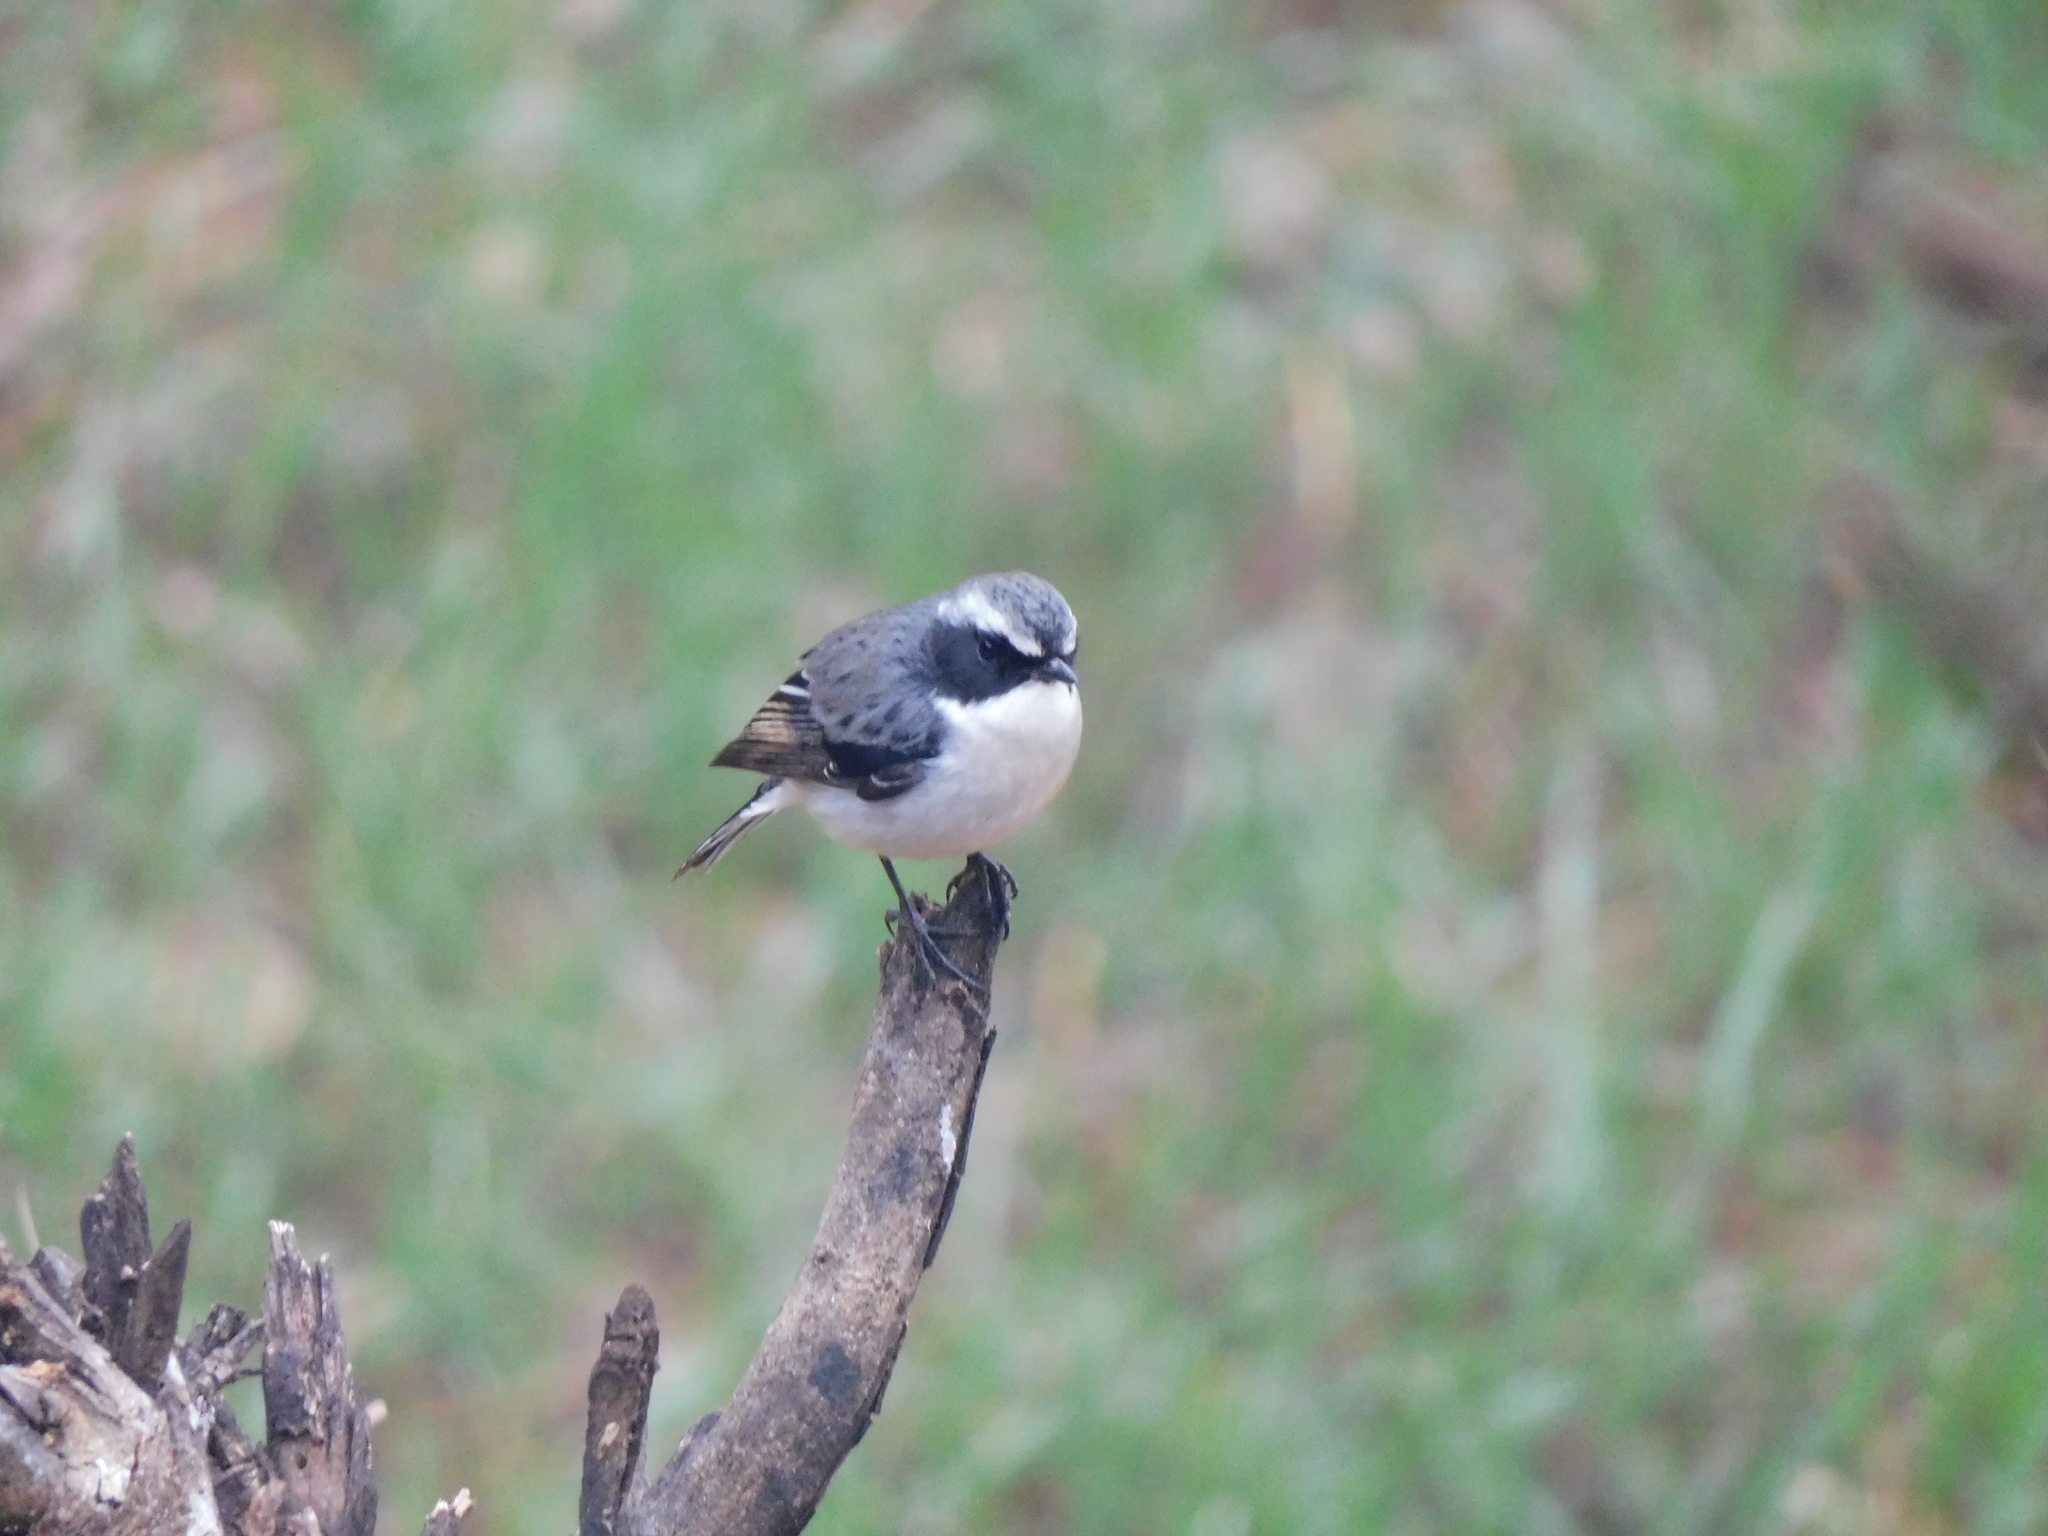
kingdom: Animalia
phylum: Chordata
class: Aves
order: Passeriformes
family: Muscicapidae
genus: Saxicola
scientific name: Saxicola ferreus
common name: Grey bush chat
